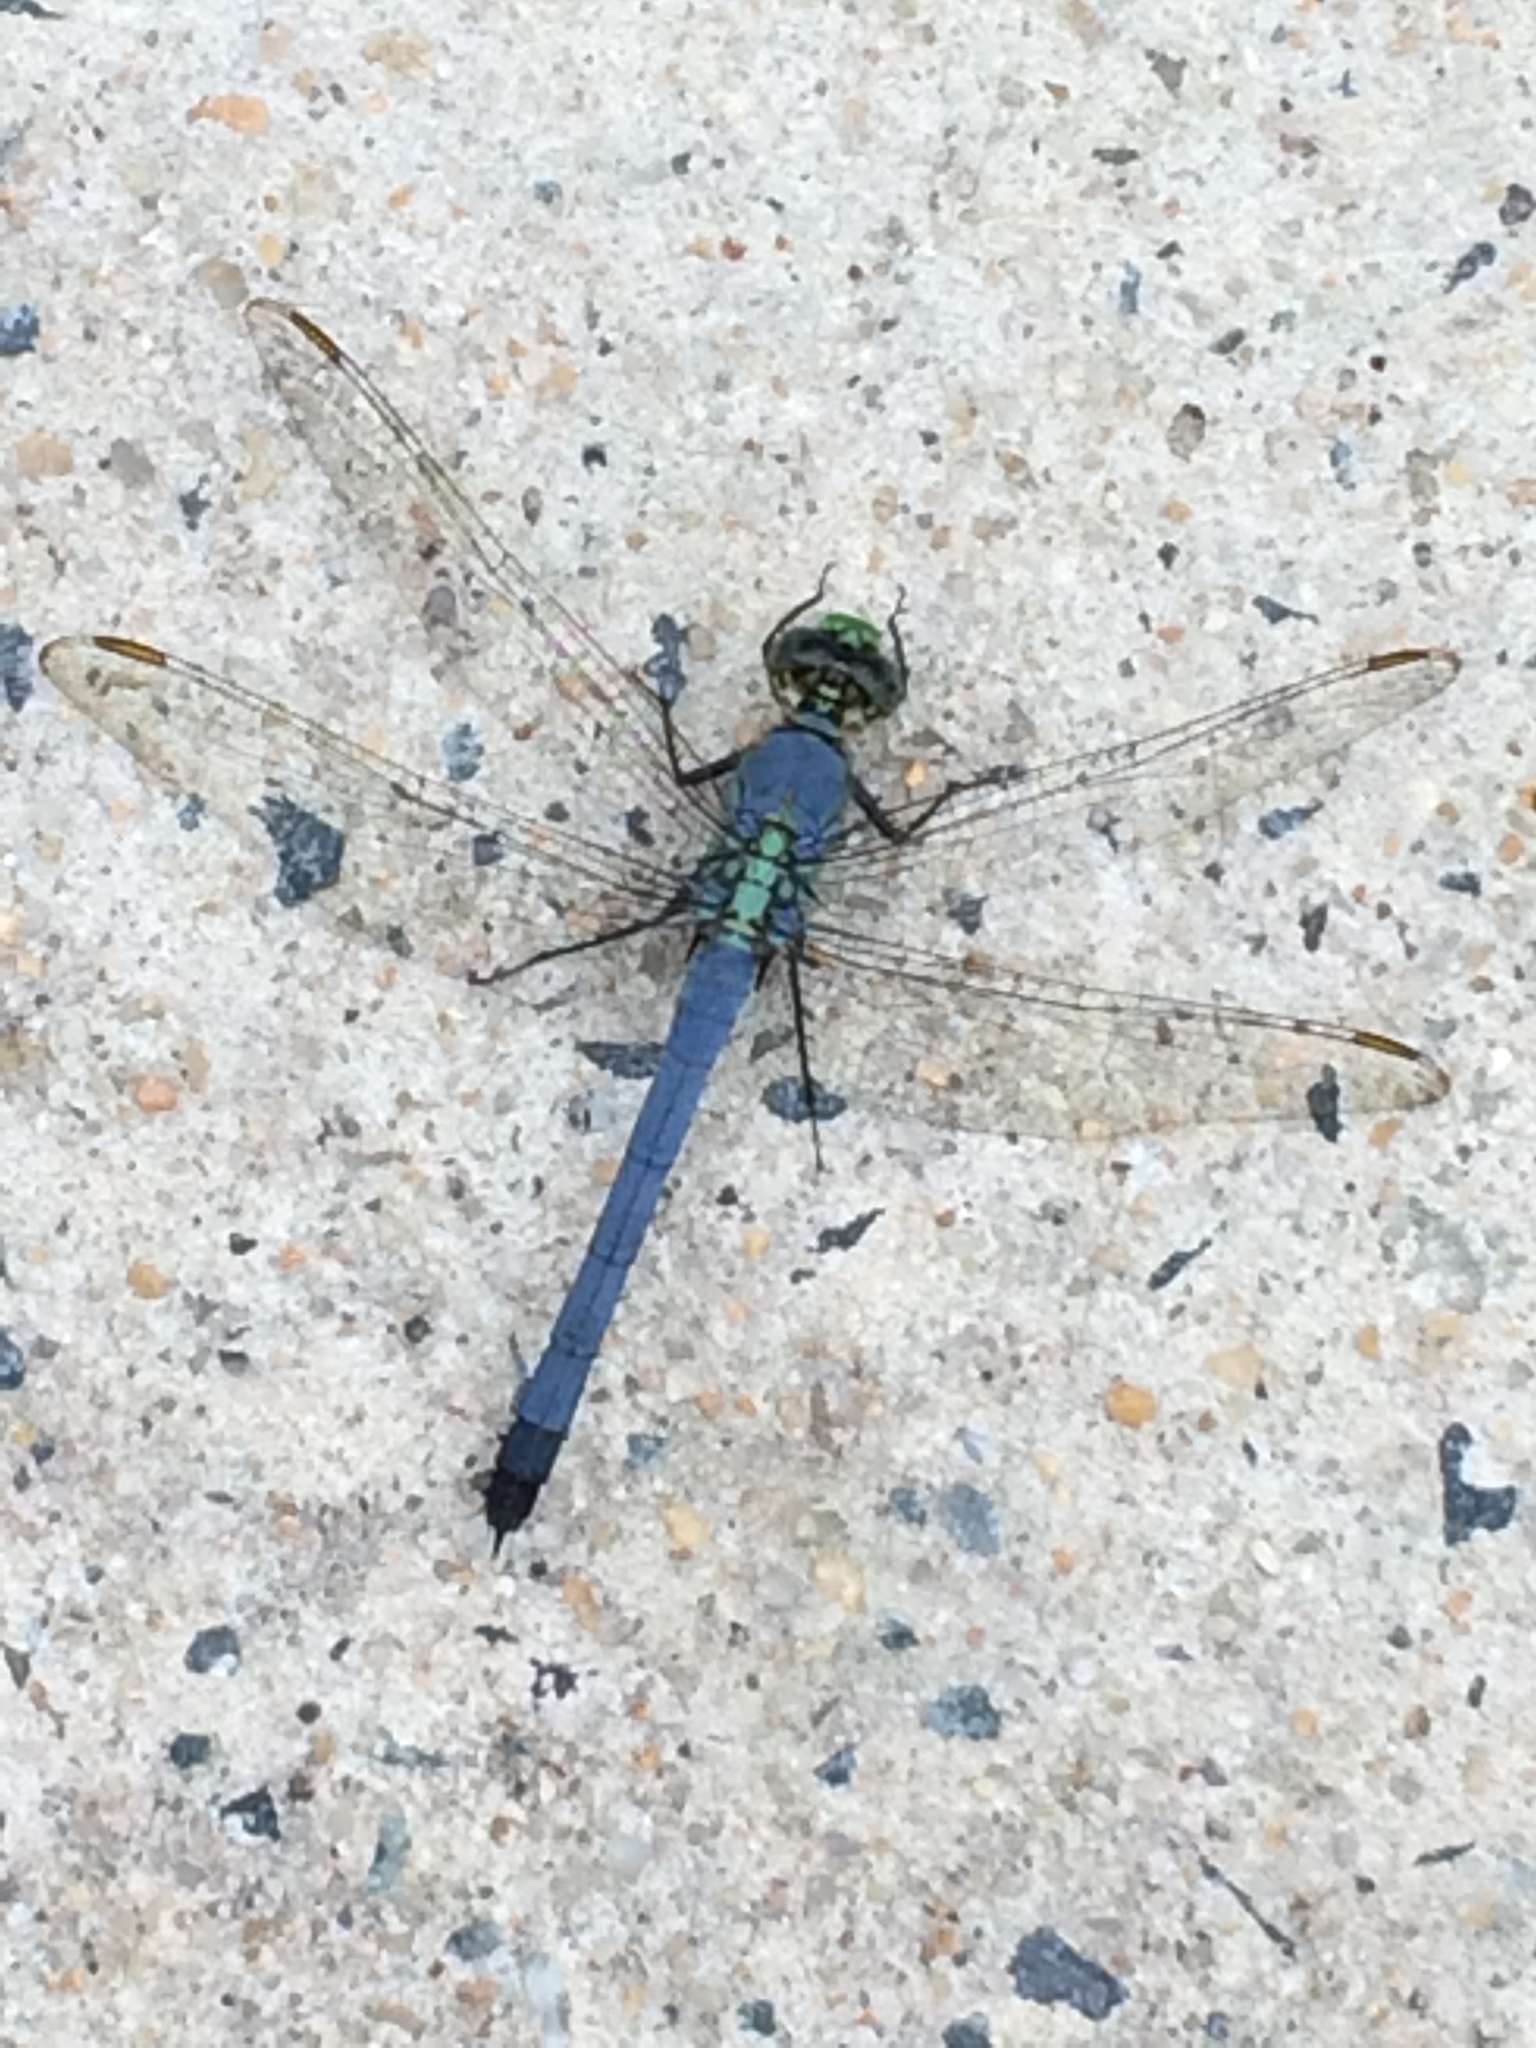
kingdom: Animalia
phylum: Arthropoda
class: Insecta
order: Odonata
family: Libellulidae
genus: Erythemis
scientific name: Erythemis simplicicollis
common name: Eastern pondhawk
